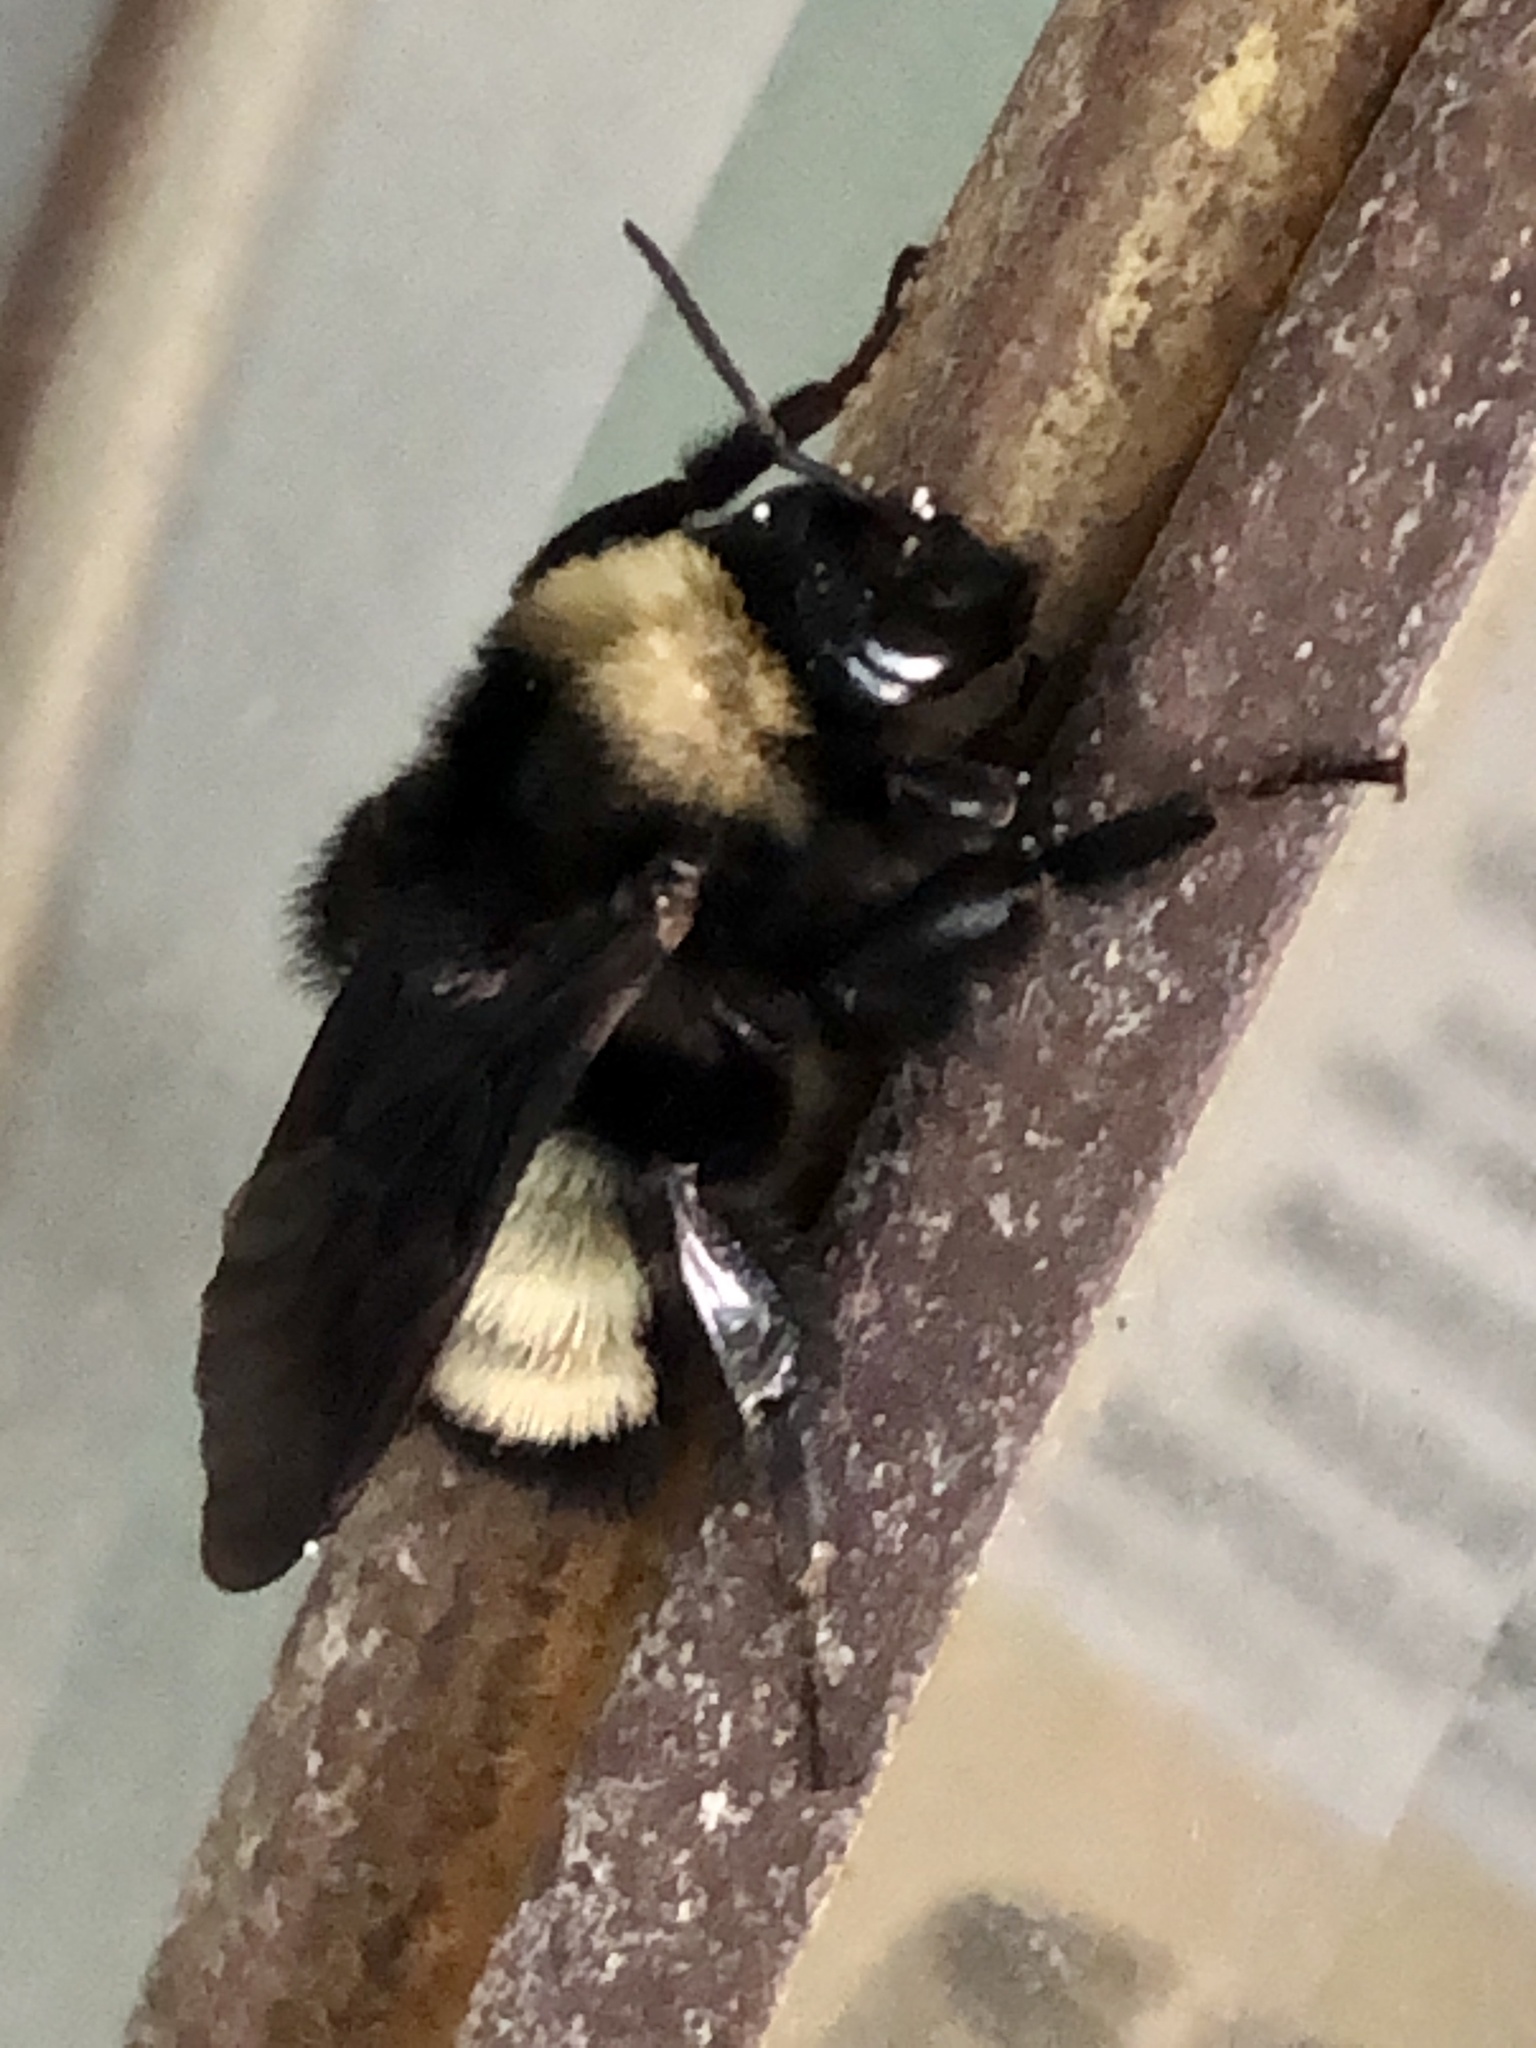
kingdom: Animalia
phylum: Arthropoda
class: Insecta
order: Hymenoptera
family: Apidae
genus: Bombus
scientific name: Bombus pensylvanicus
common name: Bumble bee
